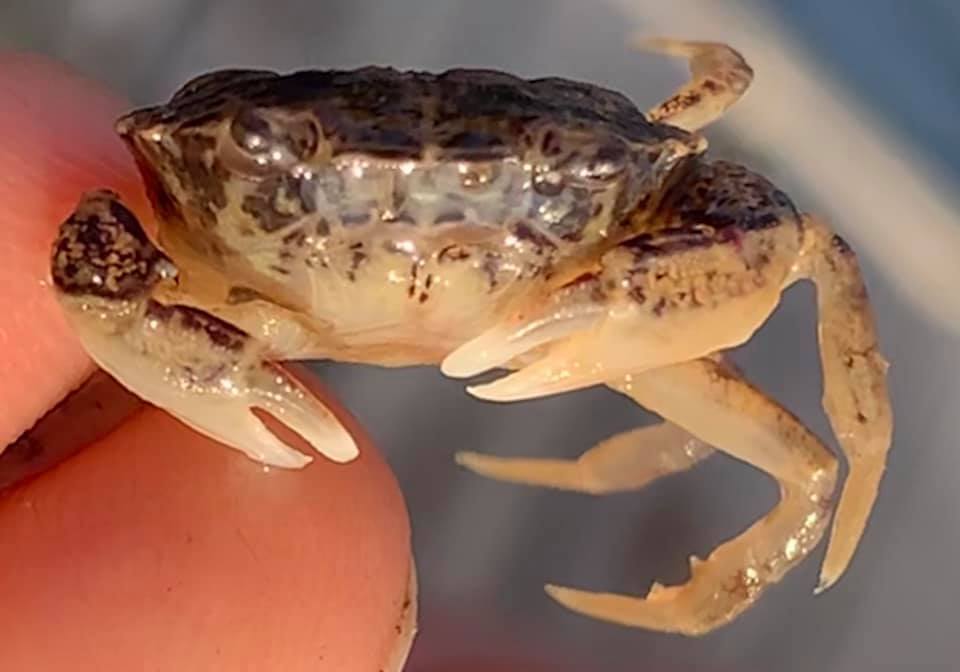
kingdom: Animalia
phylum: Arthropoda
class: Malacostraca
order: Decapoda
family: Panopeidae
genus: Rhithropanopeus
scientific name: Rhithropanopeus harrisii
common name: Dwarf crab
